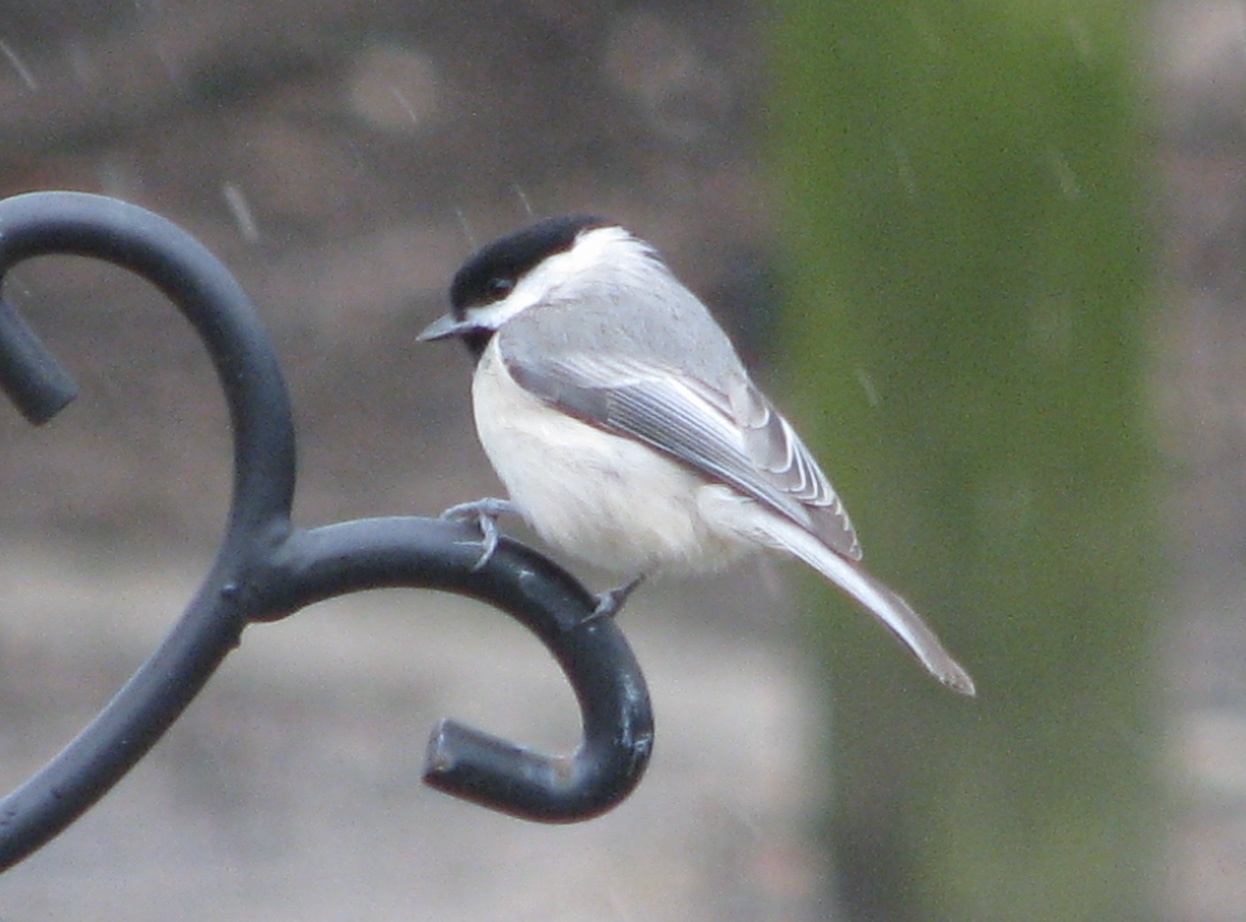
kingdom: Animalia
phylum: Chordata
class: Aves
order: Passeriformes
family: Paridae
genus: Poecile
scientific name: Poecile carolinensis
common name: Carolina chickadee
